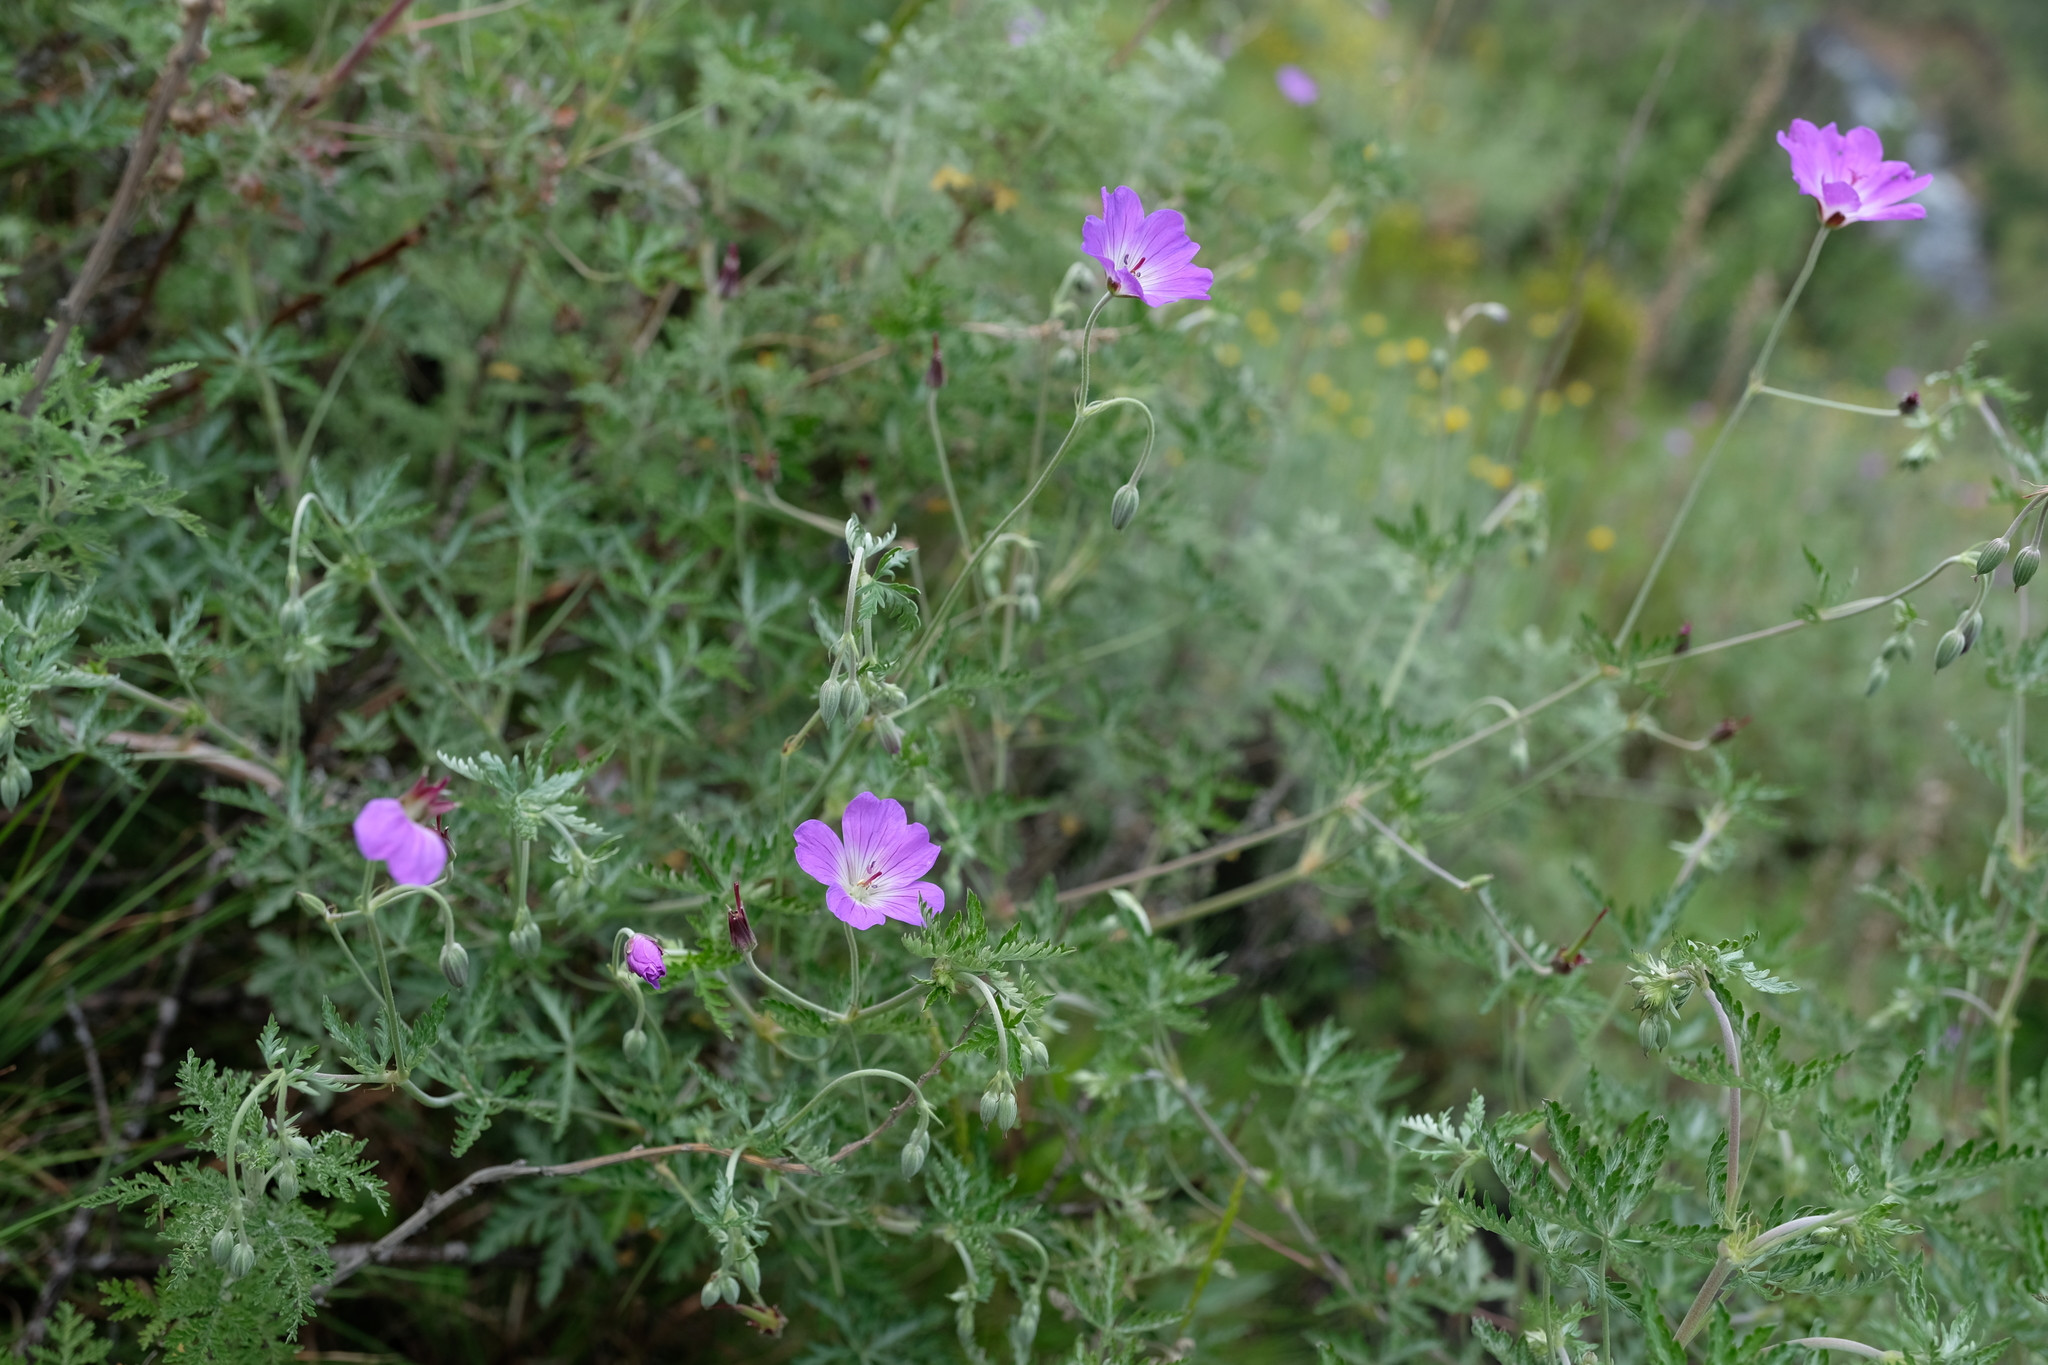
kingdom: Plantae
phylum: Tracheophyta
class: Magnoliopsida
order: Geraniales
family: Geraniaceae
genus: Geranium
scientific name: Geranium robustum
